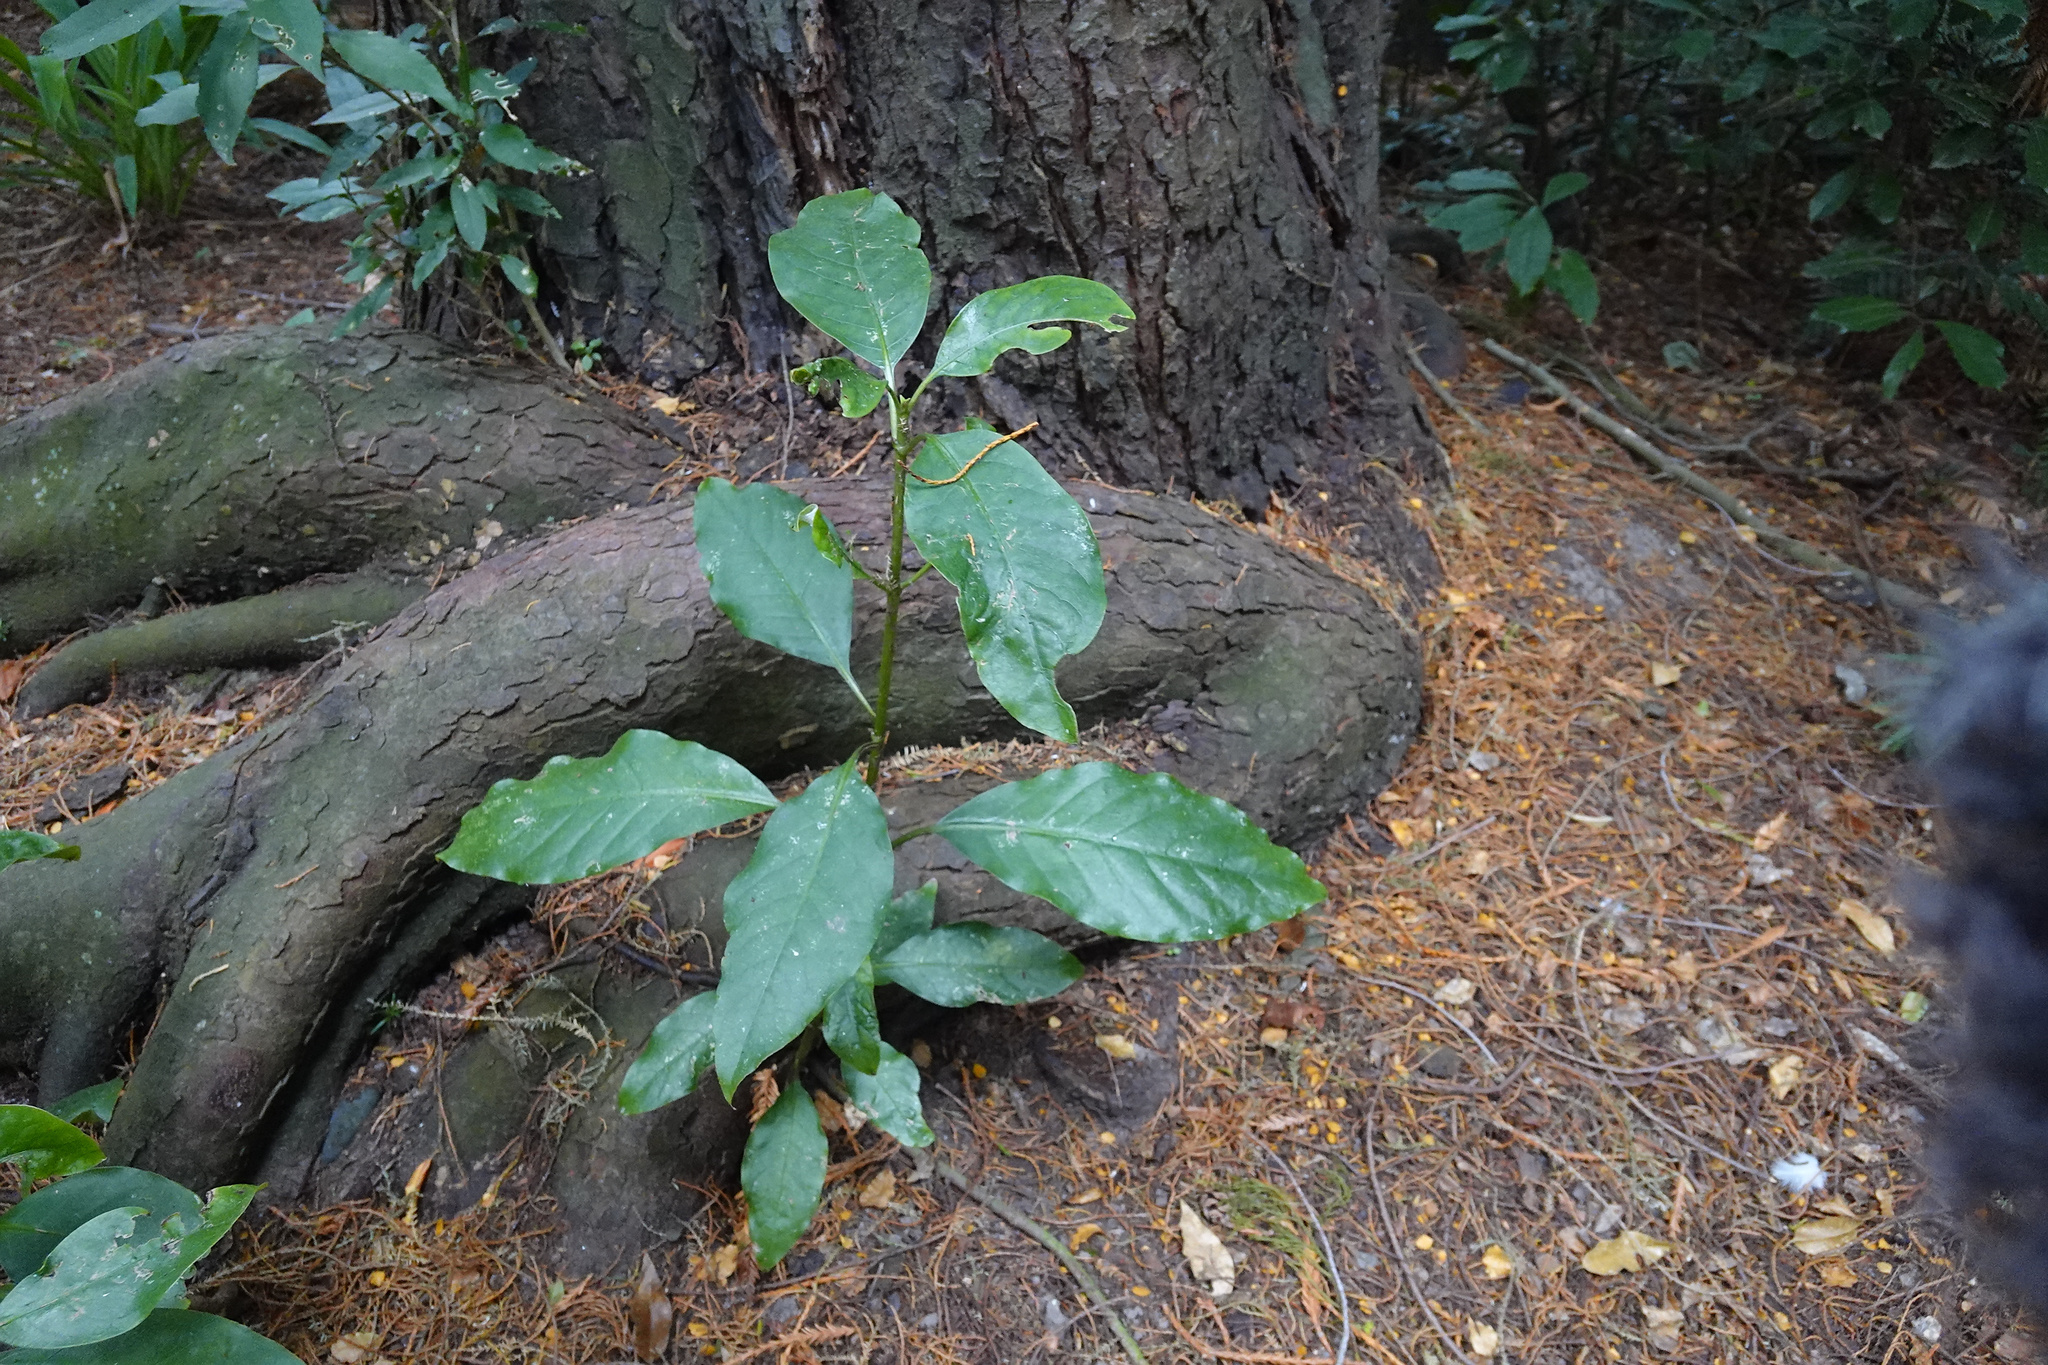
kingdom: Plantae
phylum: Tracheophyta
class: Magnoliopsida
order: Gentianales
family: Rubiaceae
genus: Coprosma
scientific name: Coprosma autumnalis
